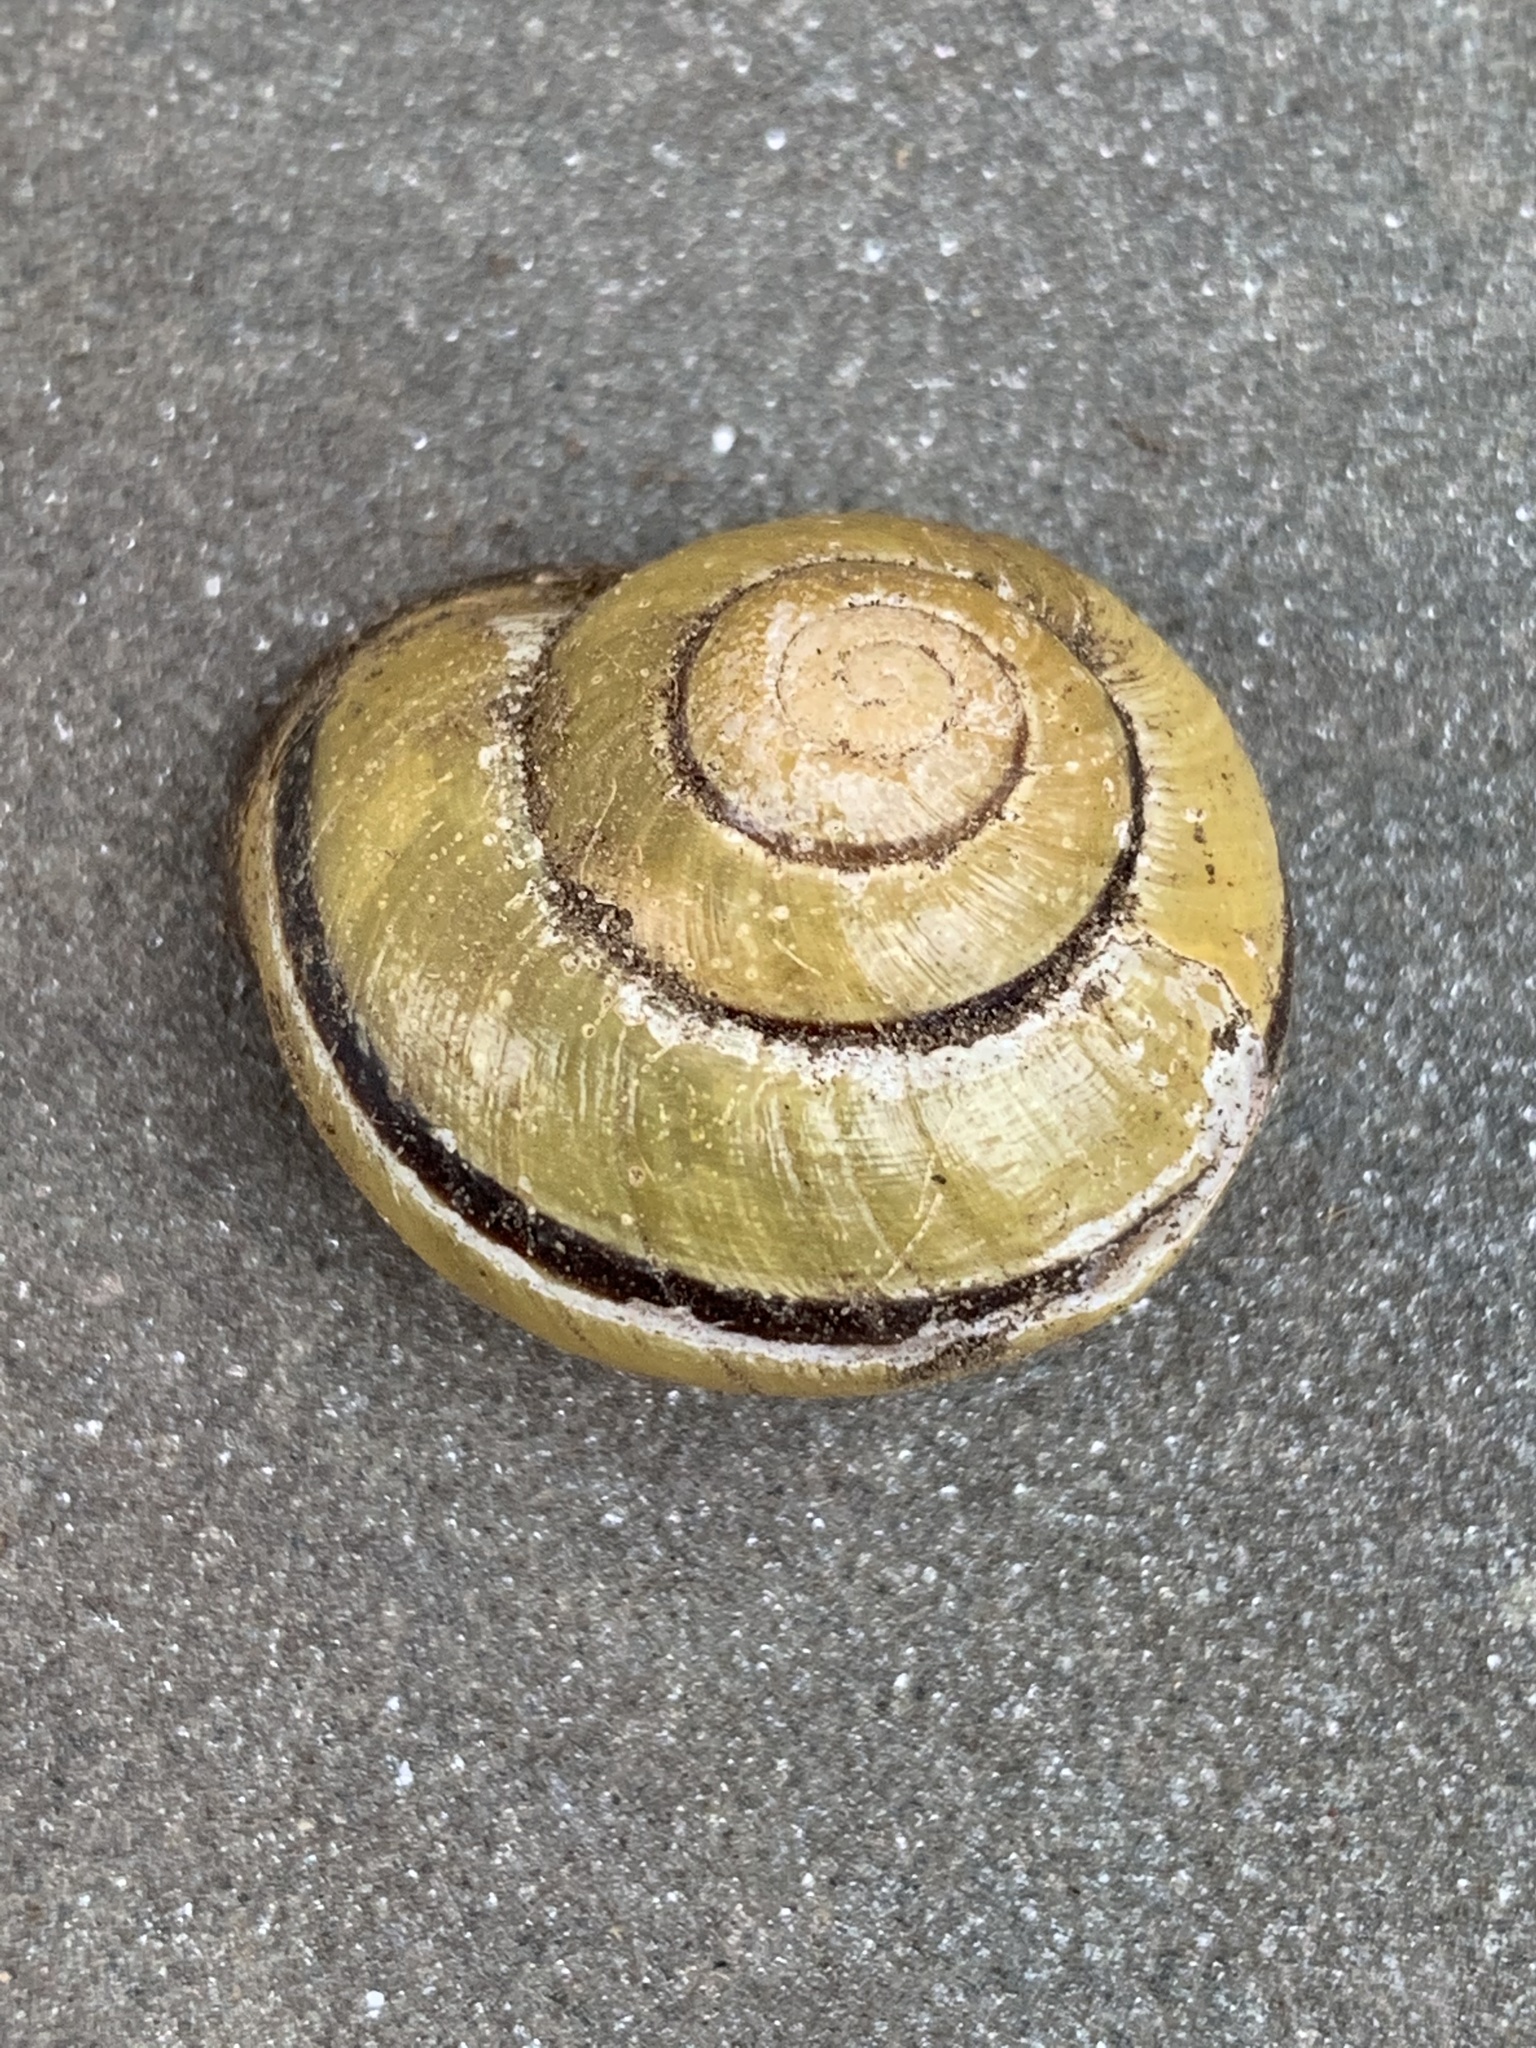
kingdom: Animalia
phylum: Mollusca
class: Gastropoda
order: Stylommatophora
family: Helicidae
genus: Cepaea
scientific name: Cepaea nemoralis
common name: Grovesnail
